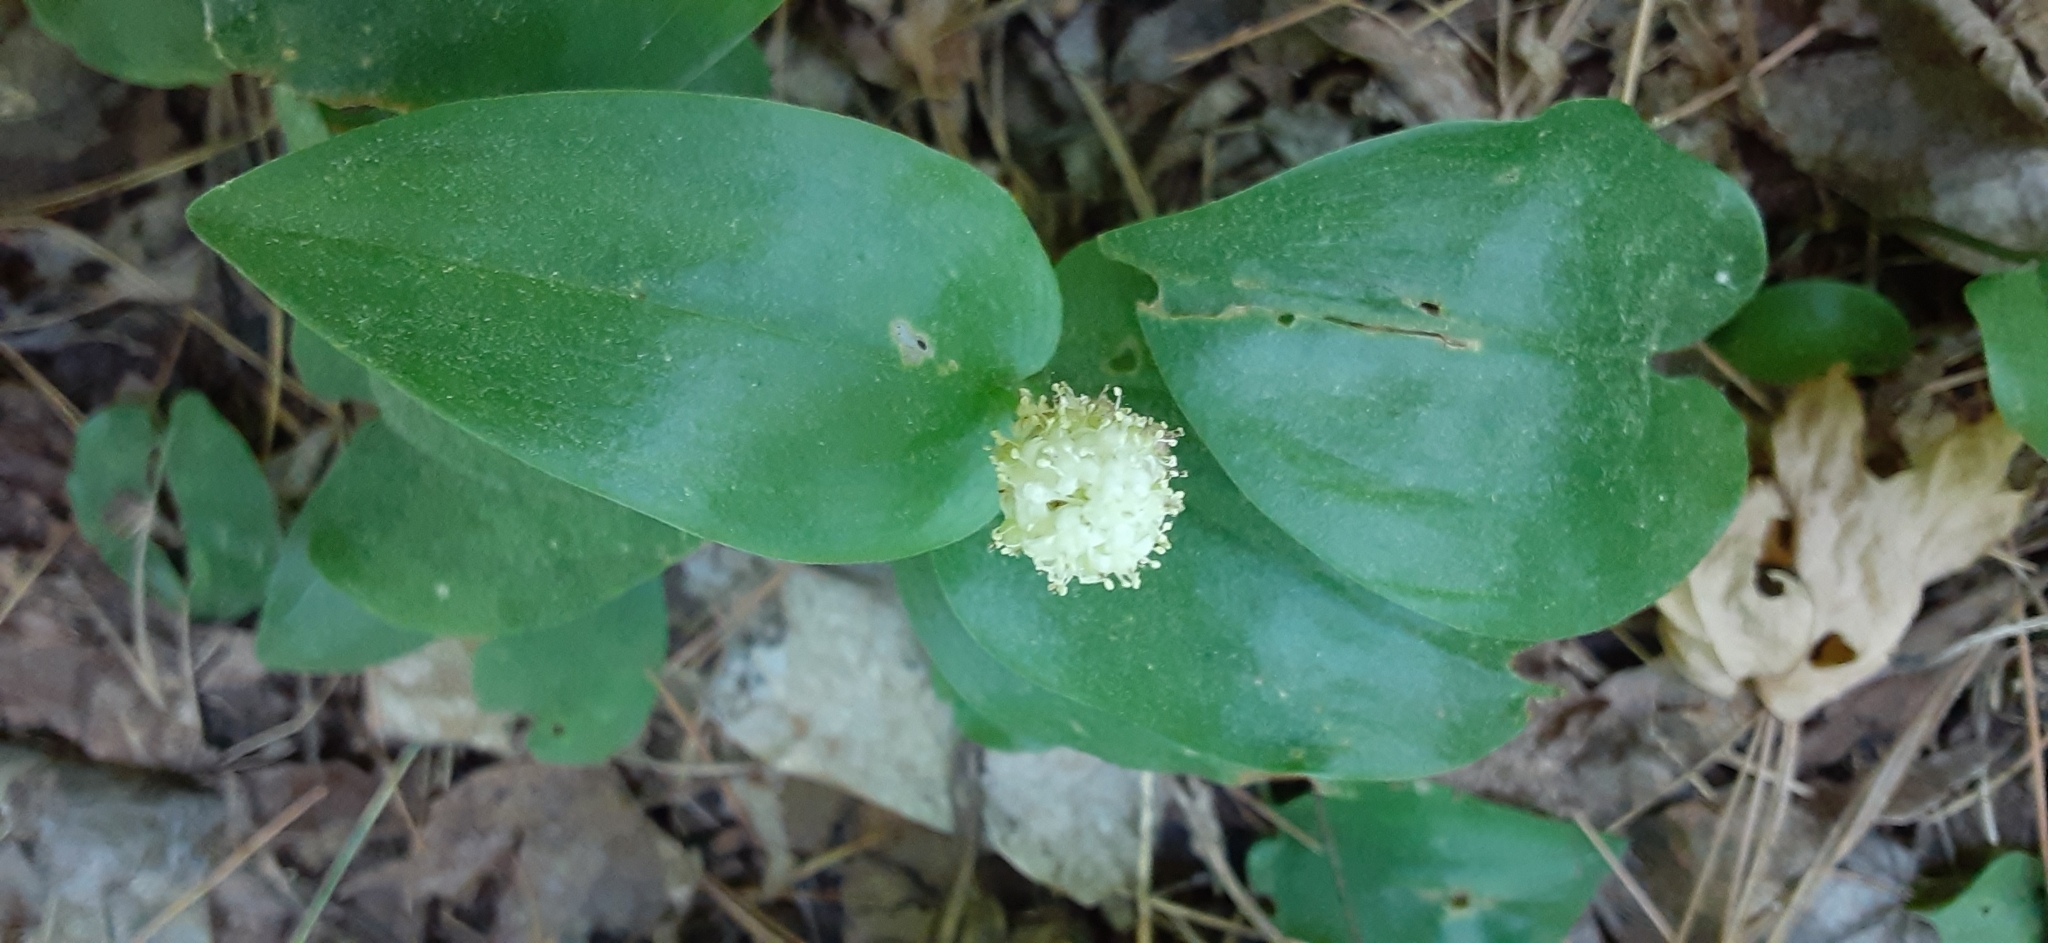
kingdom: Plantae
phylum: Tracheophyta
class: Liliopsida
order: Asparagales
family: Asparagaceae
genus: Maianthemum
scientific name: Maianthemum canadense
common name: False lily-of-the-valley
